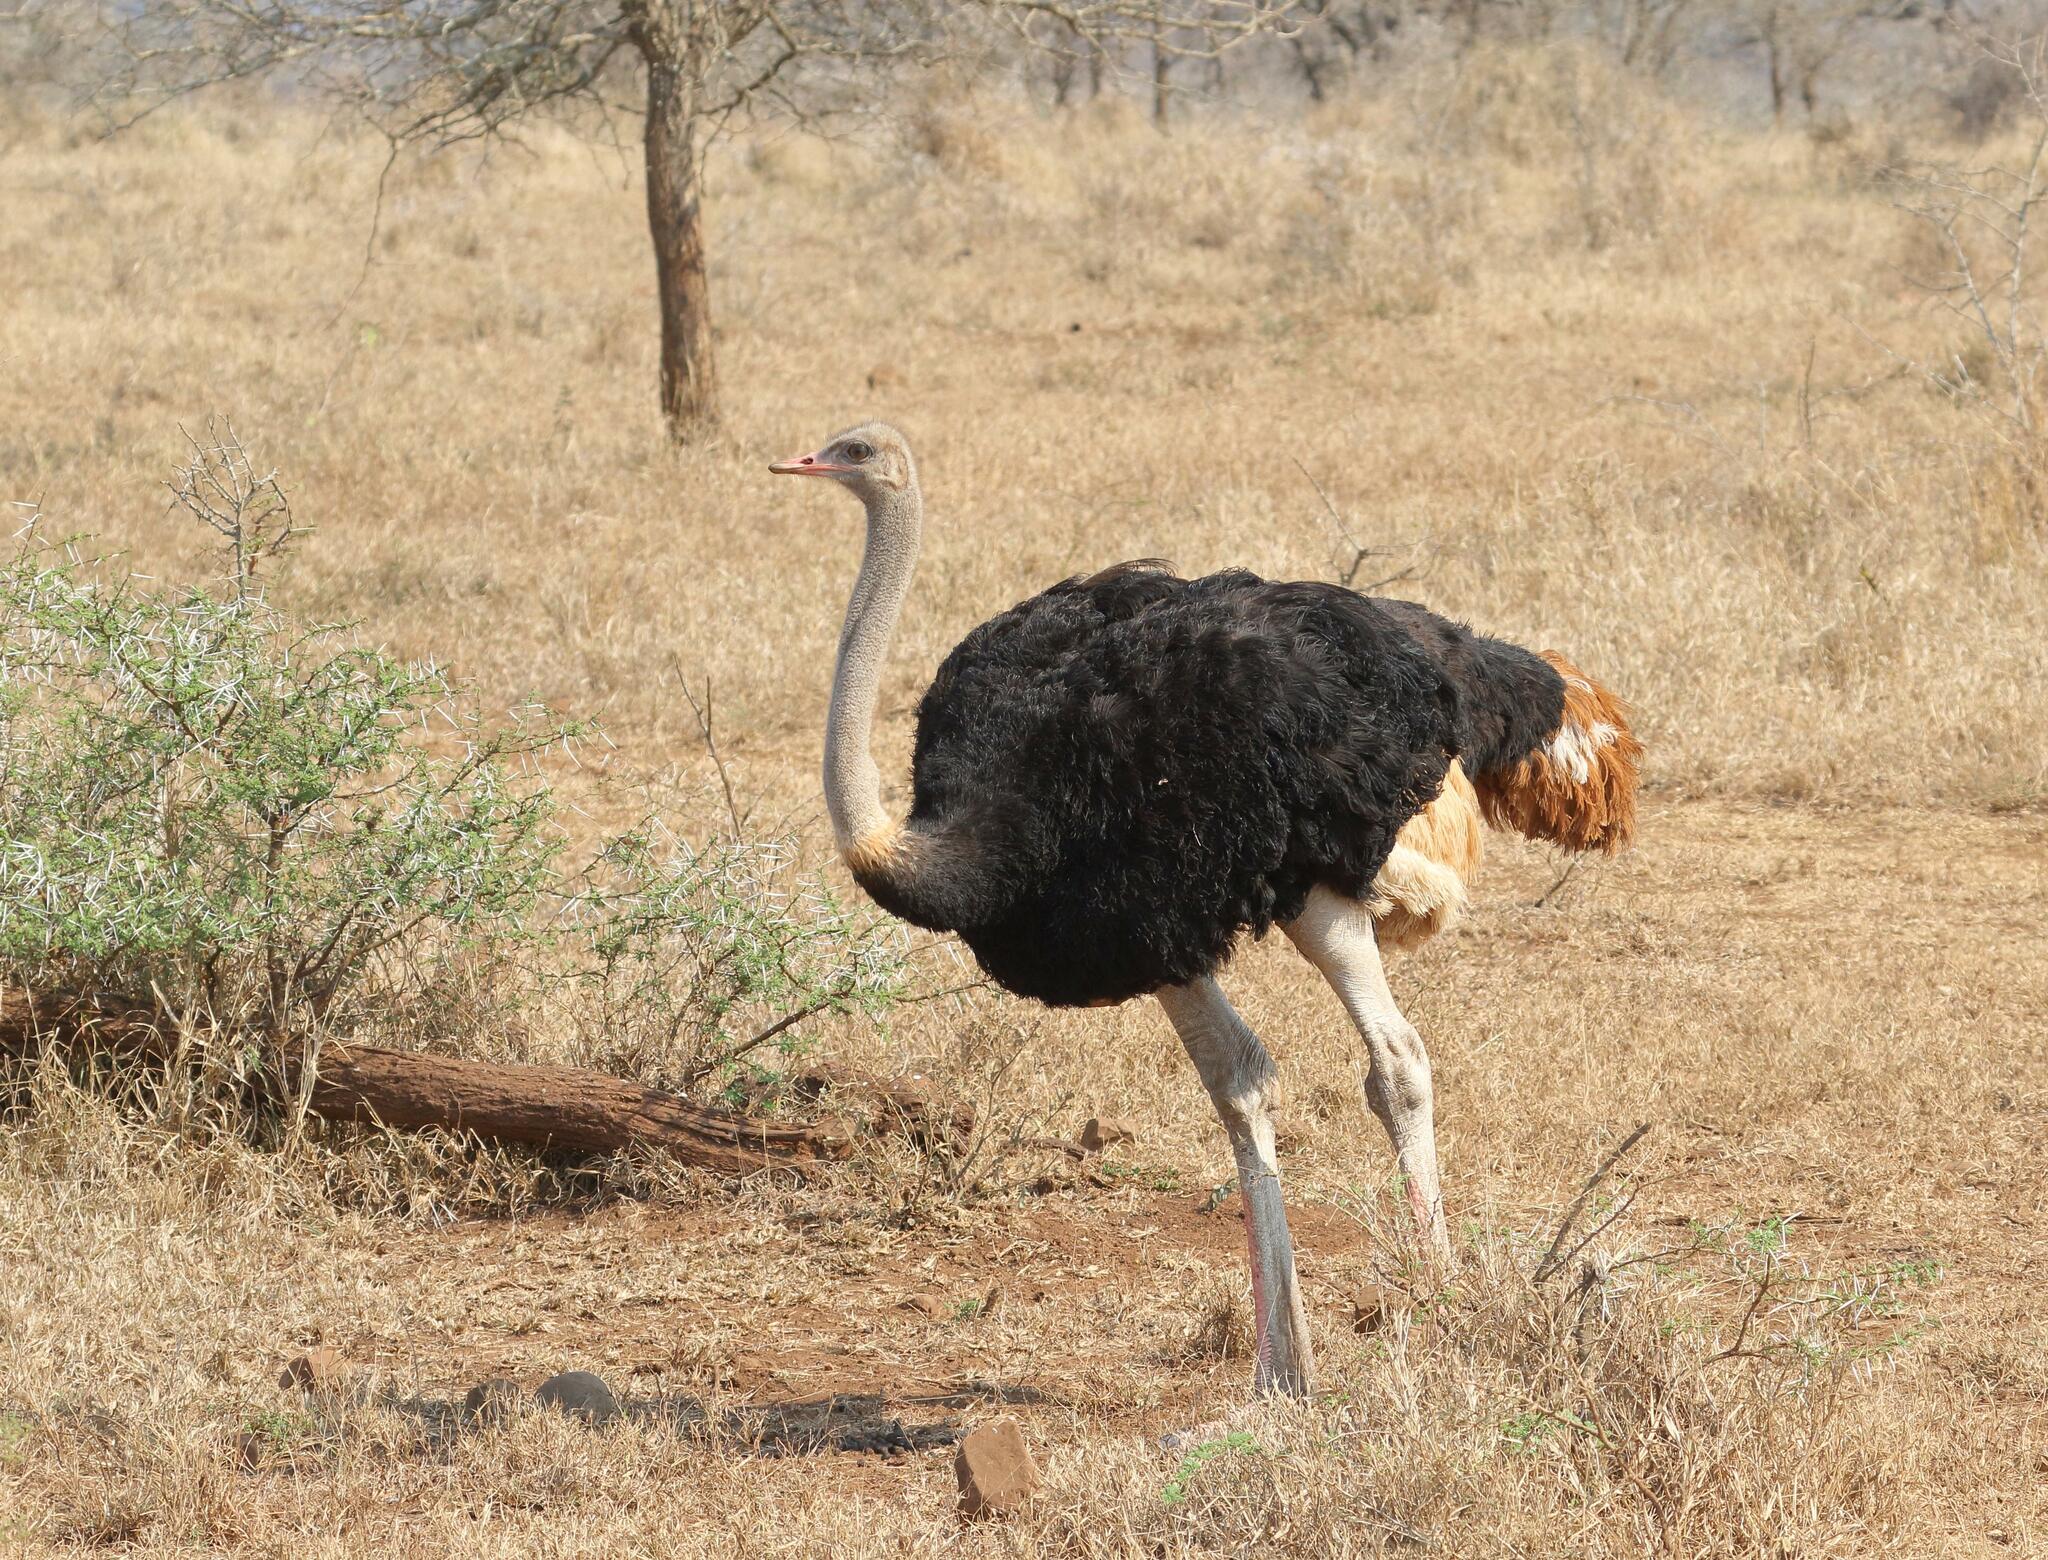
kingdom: Animalia
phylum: Chordata
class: Aves
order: Struthioniformes
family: Struthionidae
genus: Struthio
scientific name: Struthio camelus
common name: Common ostrich
